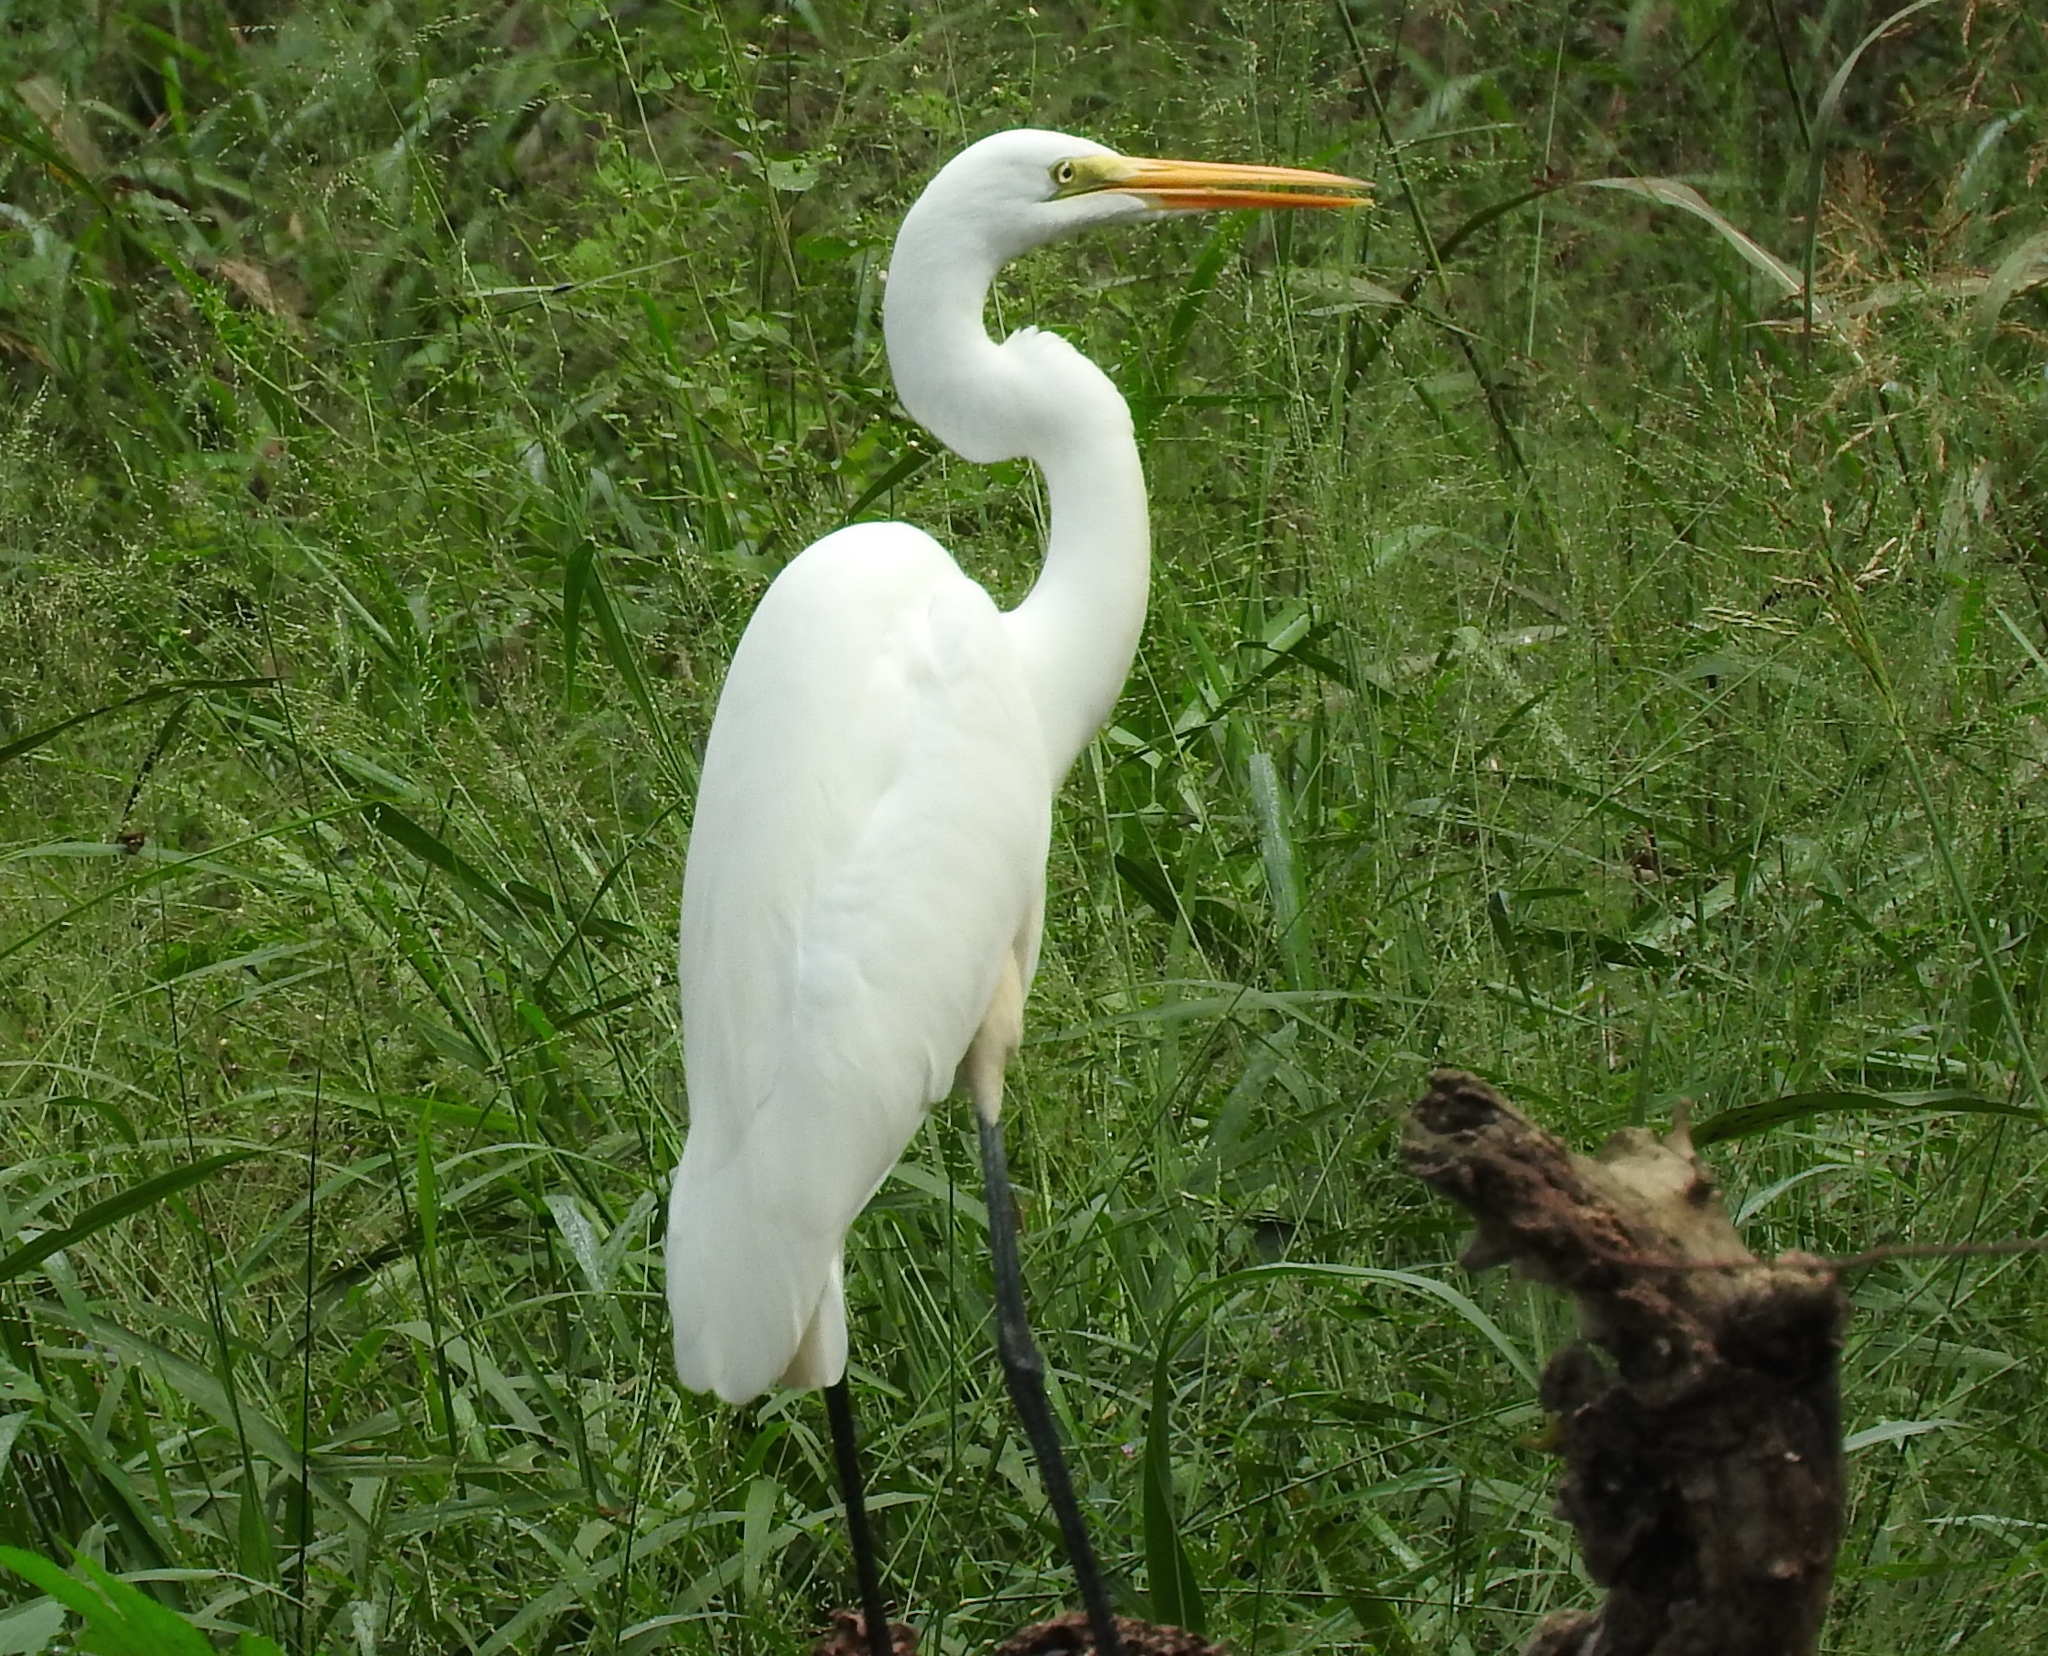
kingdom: Animalia
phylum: Chordata
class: Aves
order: Pelecaniformes
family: Ardeidae
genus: Ardea
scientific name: Ardea alba
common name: Great egret
